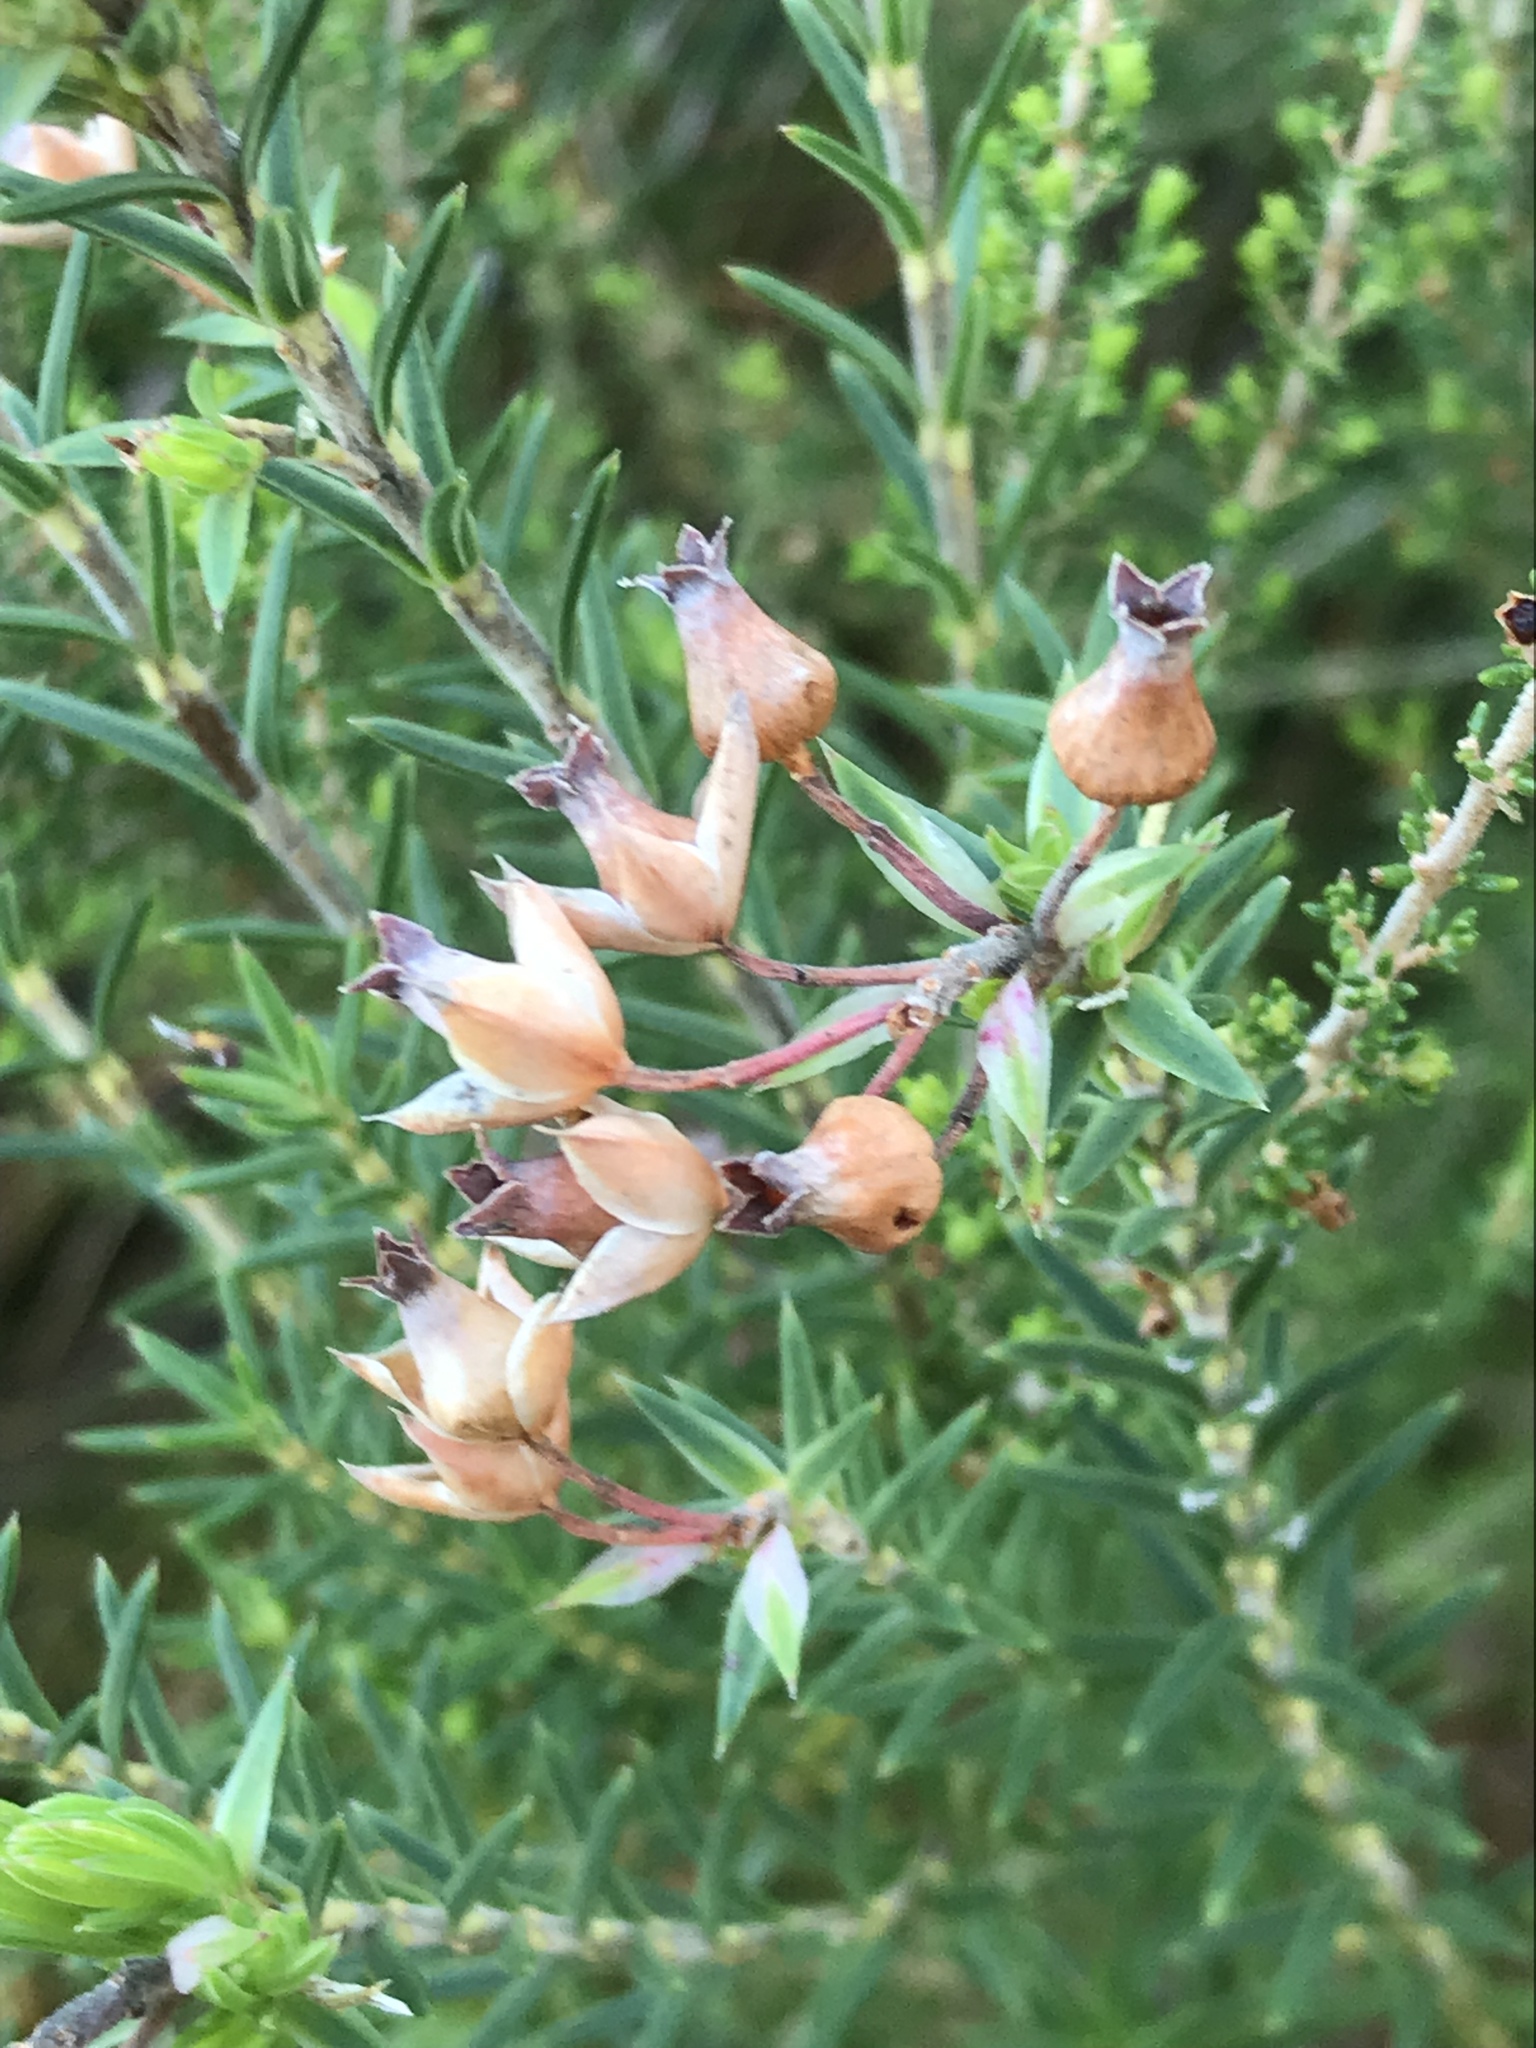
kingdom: Plantae
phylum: Tracheophyta
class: Magnoliopsida
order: Ericales
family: Ericaceae
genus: Erica
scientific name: Erica taxifolia
